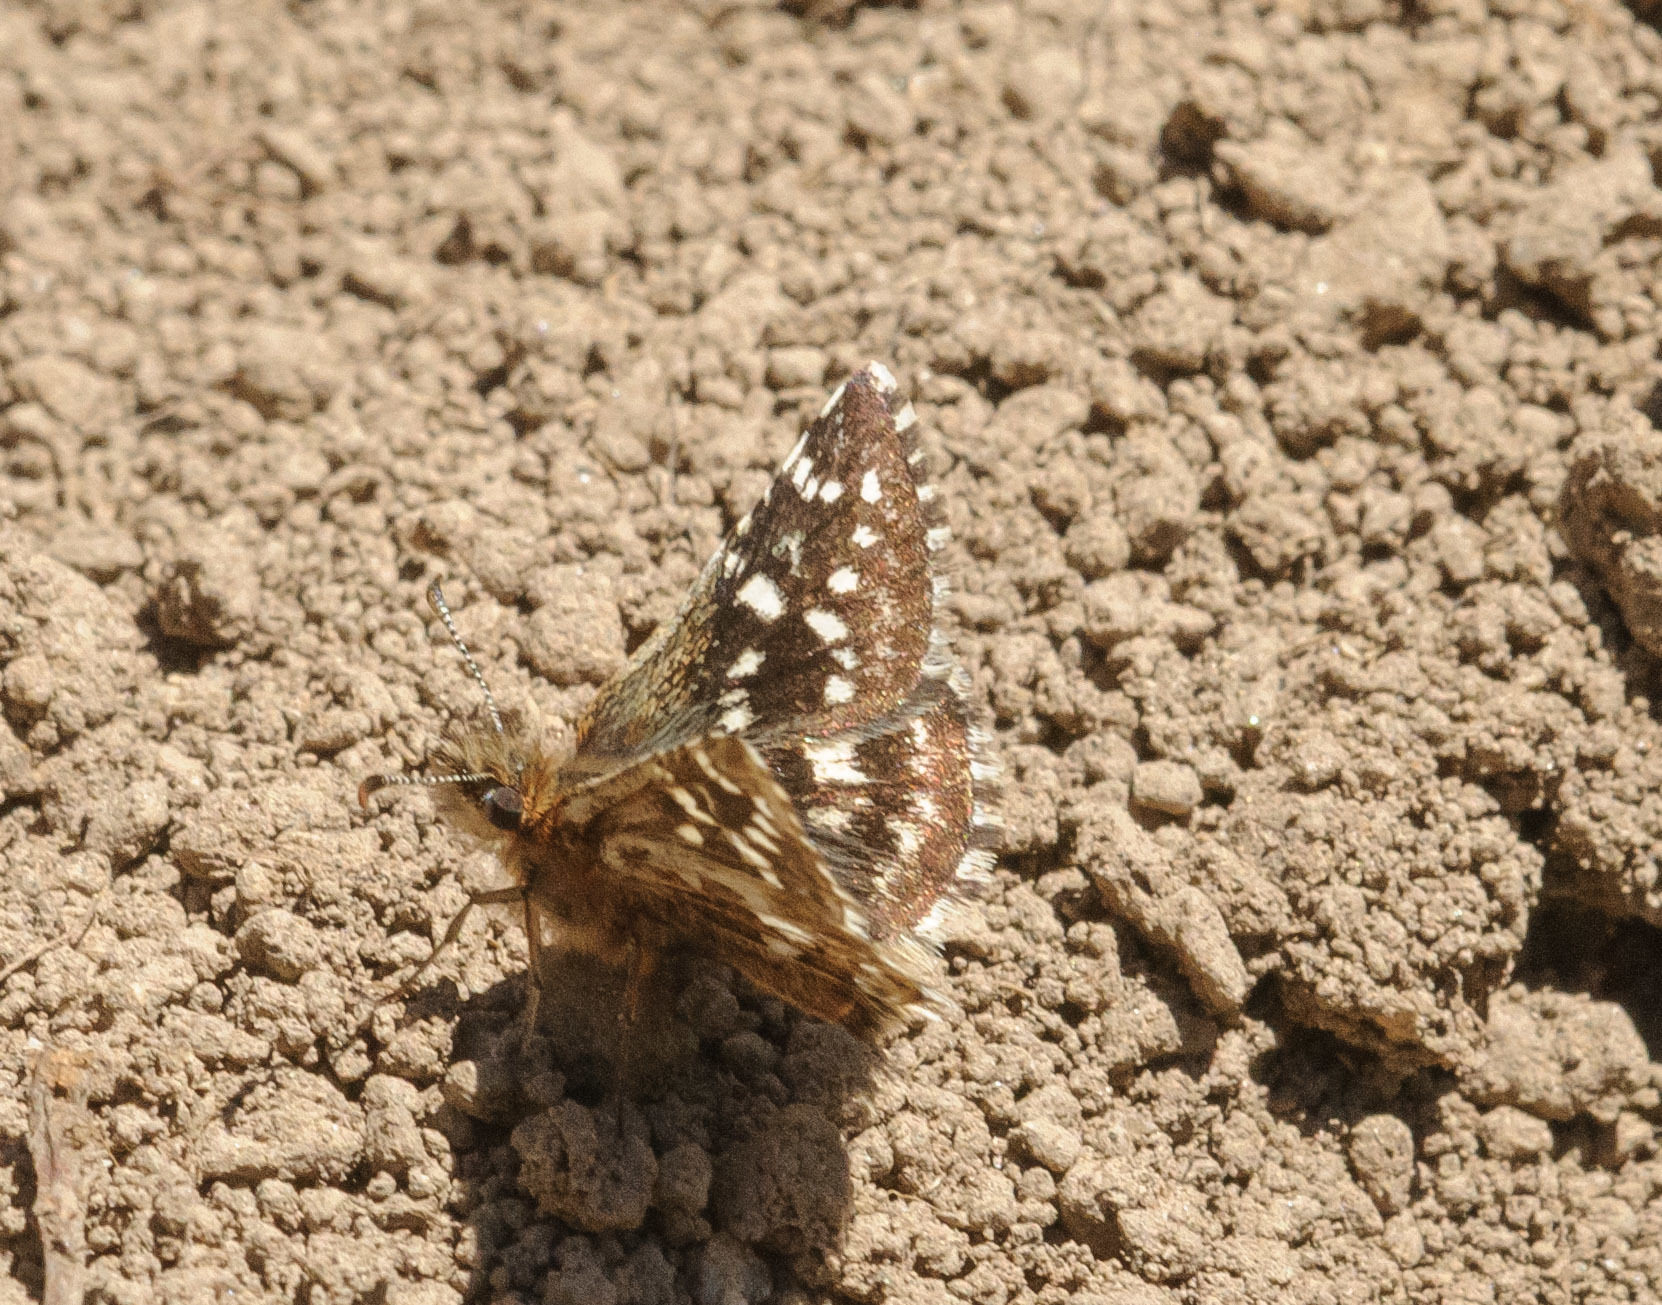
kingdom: Animalia
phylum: Arthropoda
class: Insecta
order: Lepidoptera
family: Hesperiidae
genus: Pyrgus
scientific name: Pyrgus ruralis
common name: Two-banded checkered-skipper
